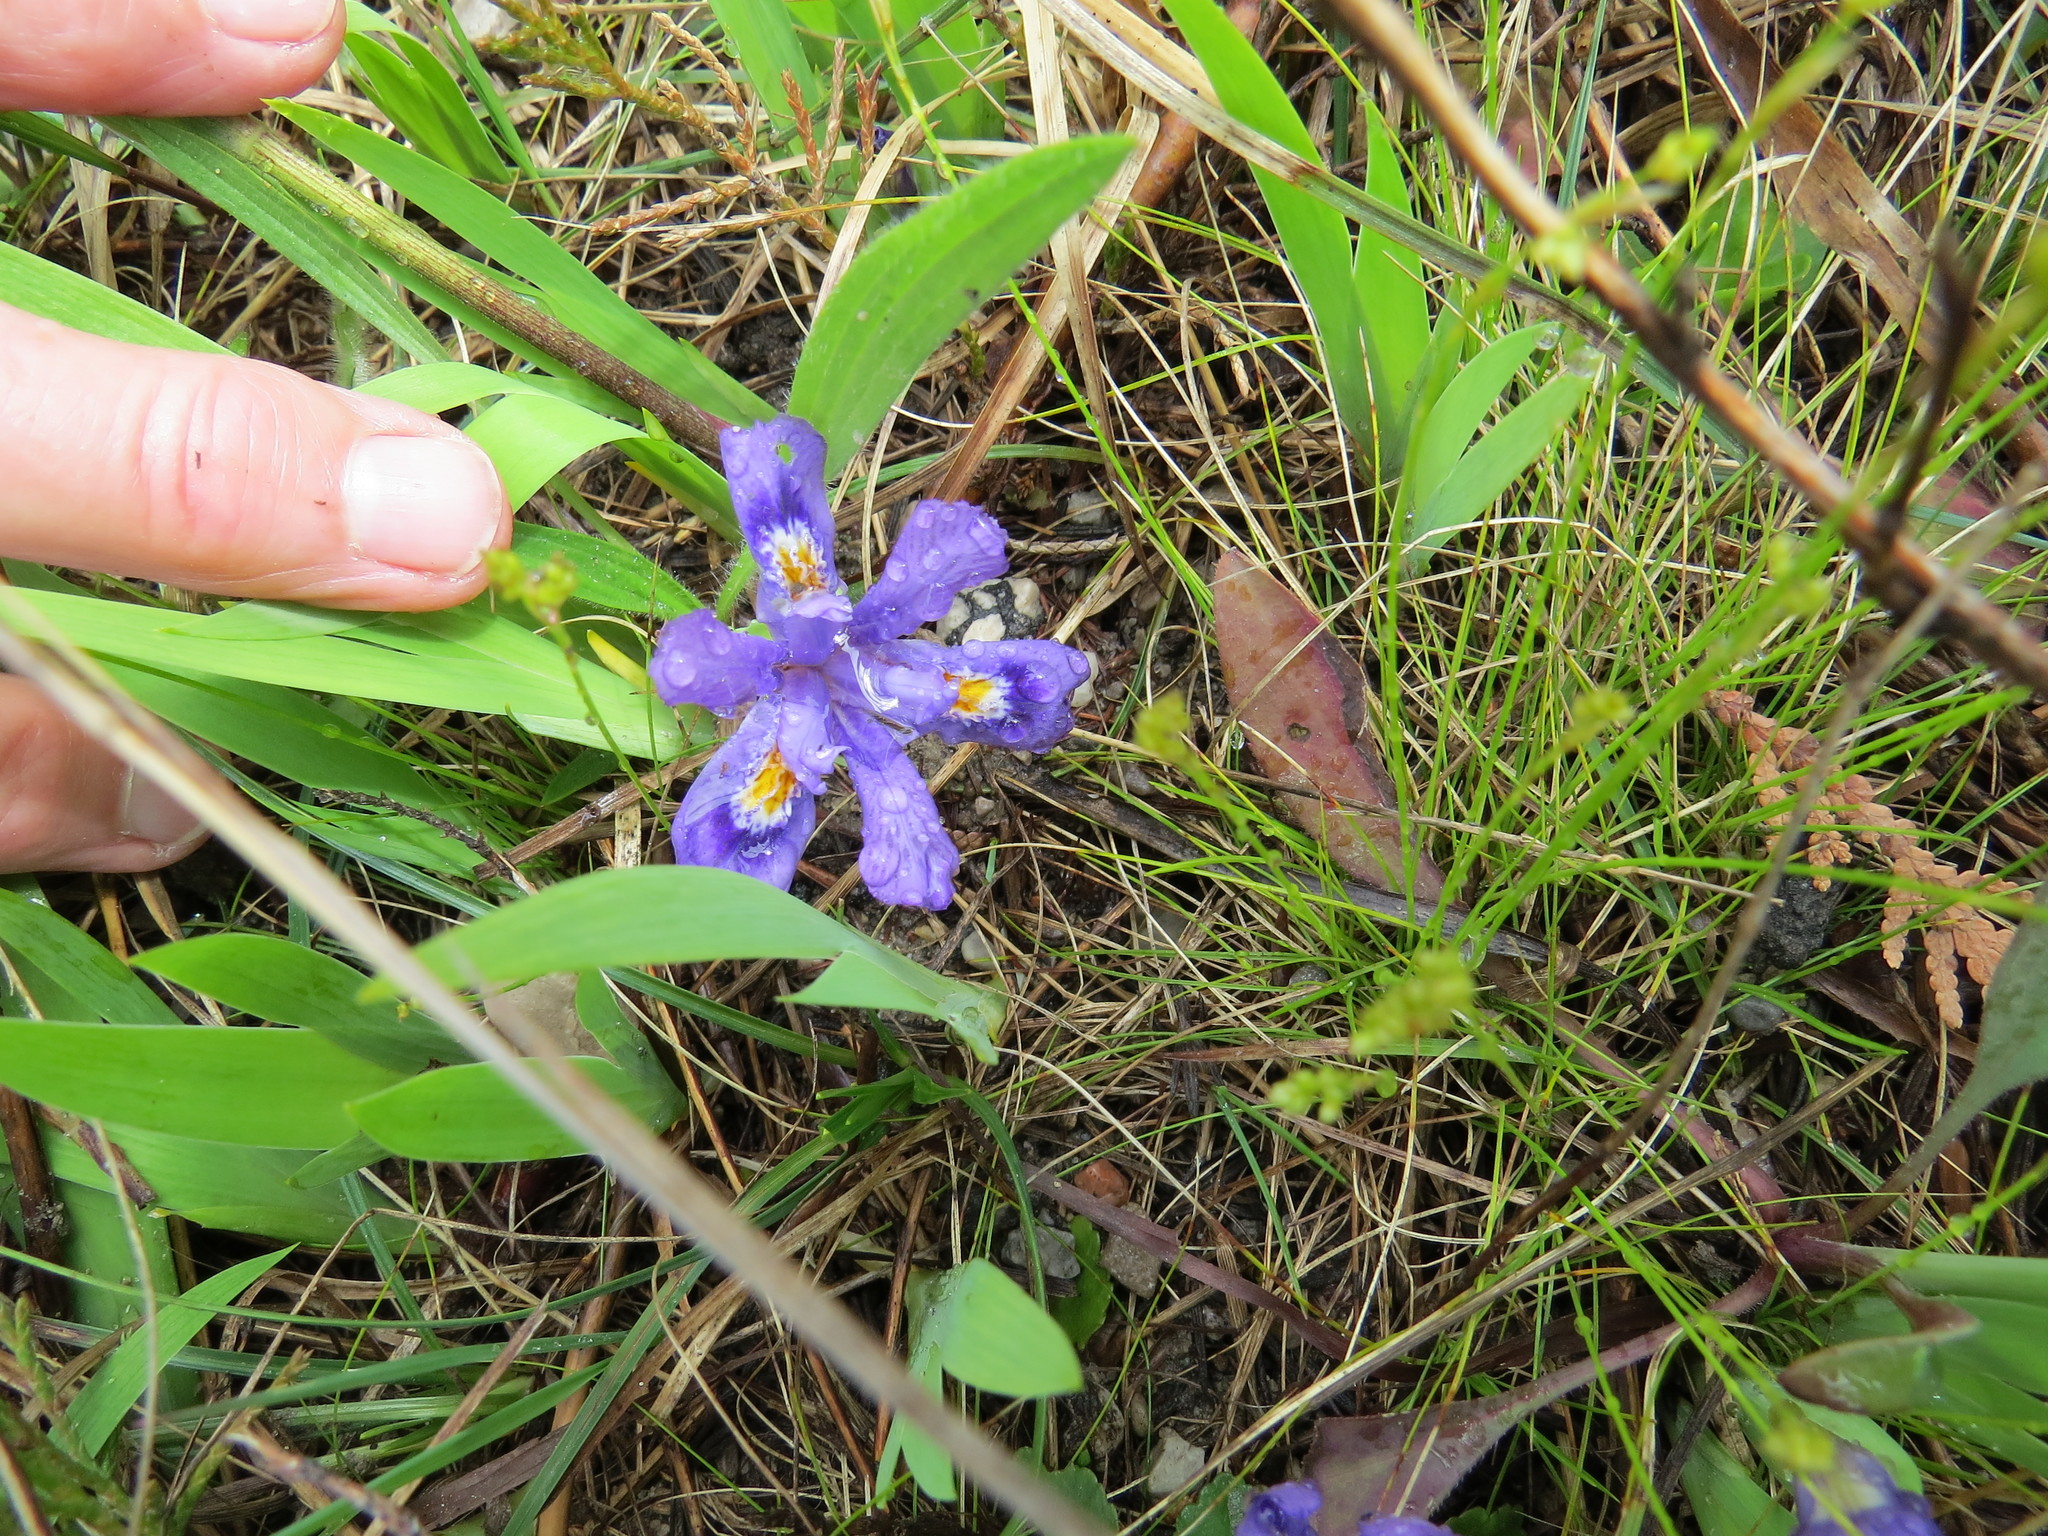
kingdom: Plantae
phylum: Tracheophyta
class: Liliopsida
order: Asparagales
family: Iridaceae
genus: Iris
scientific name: Iris lacustris
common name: Dwarf lake iris
